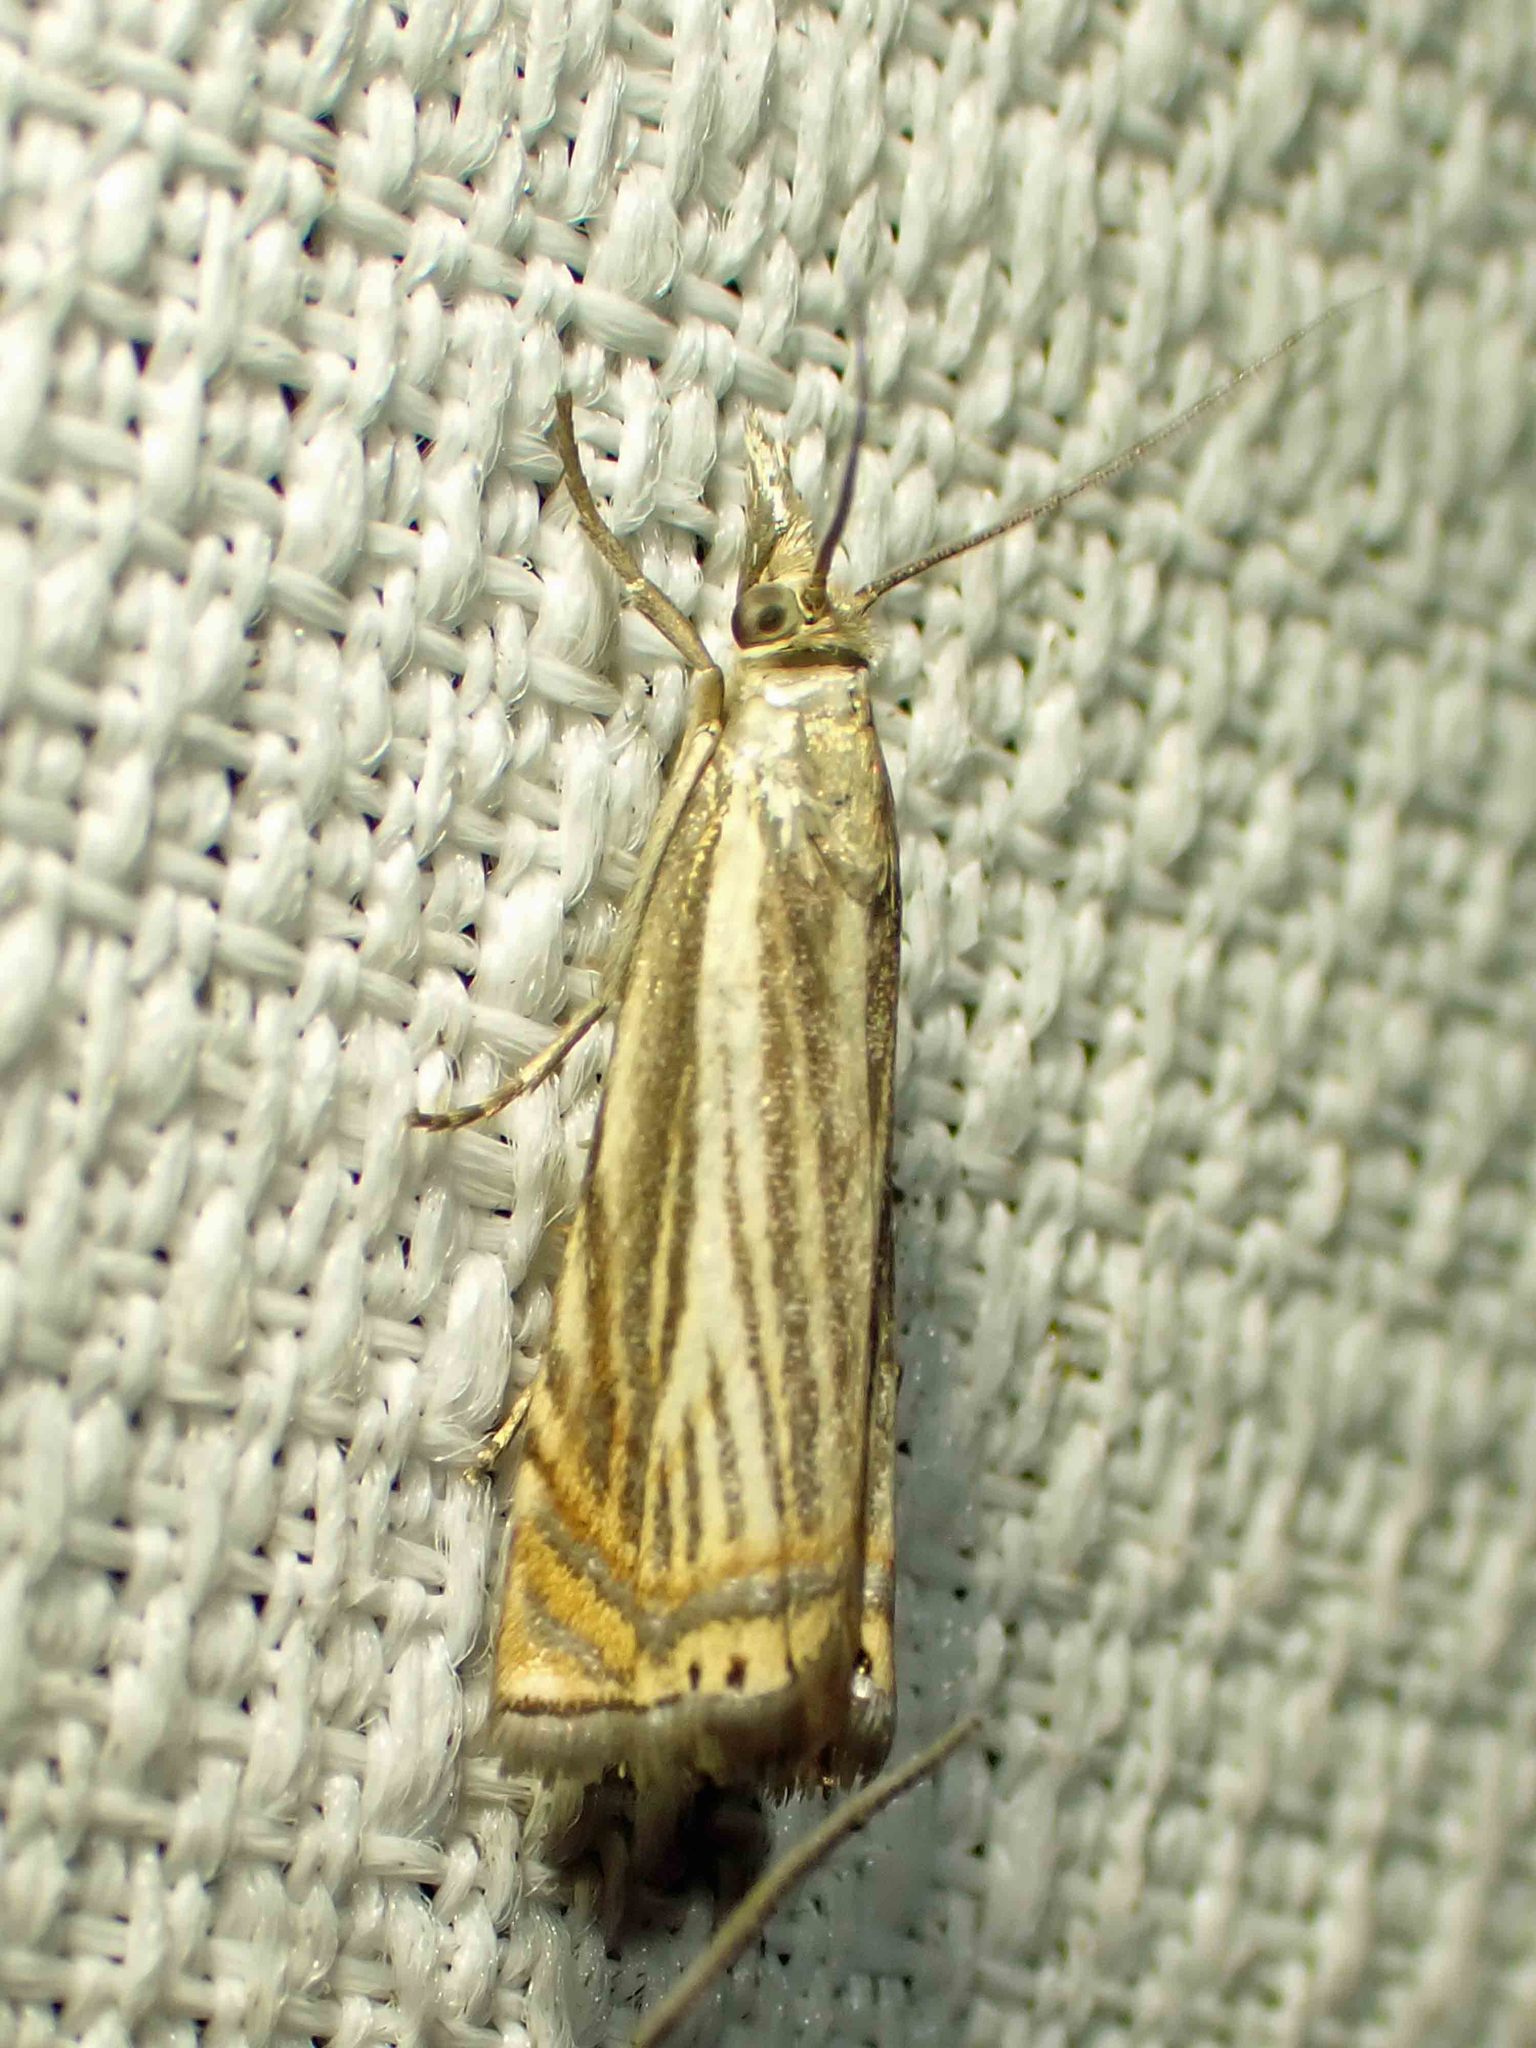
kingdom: Animalia
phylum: Arthropoda
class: Insecta
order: Lepidoptera
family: Crambidae
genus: Chrysoteuchia
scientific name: Chrysoteuchia topiarius
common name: Topiary grass-veneer
